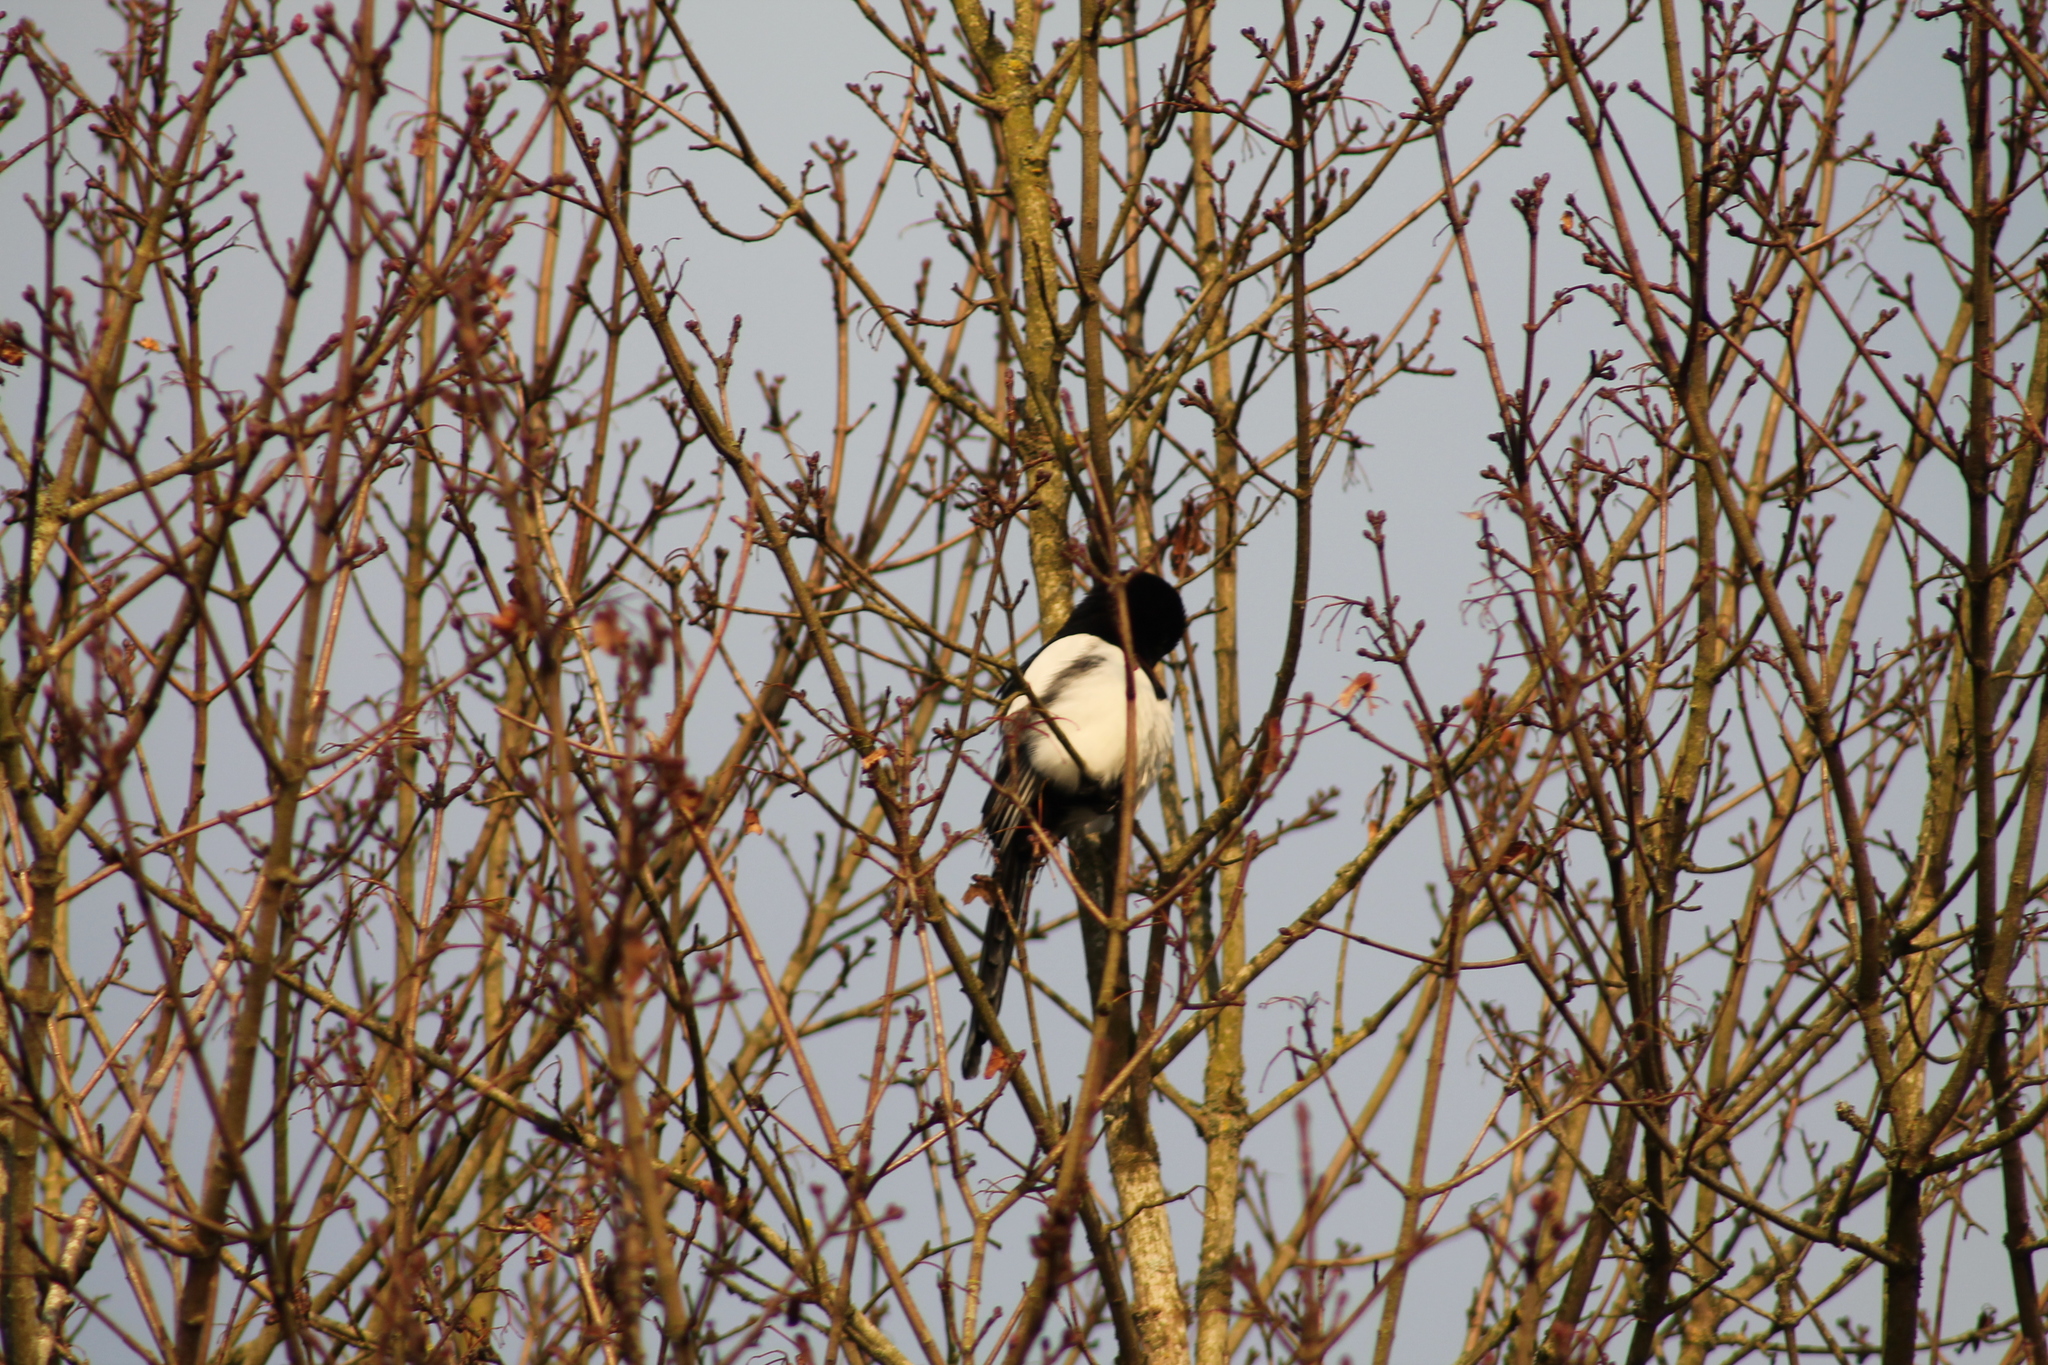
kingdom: Animalia
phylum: Chordata
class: Aves
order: Passeriformes
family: Corvidae
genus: Pica
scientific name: Pica pica
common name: Eurasian magpie
